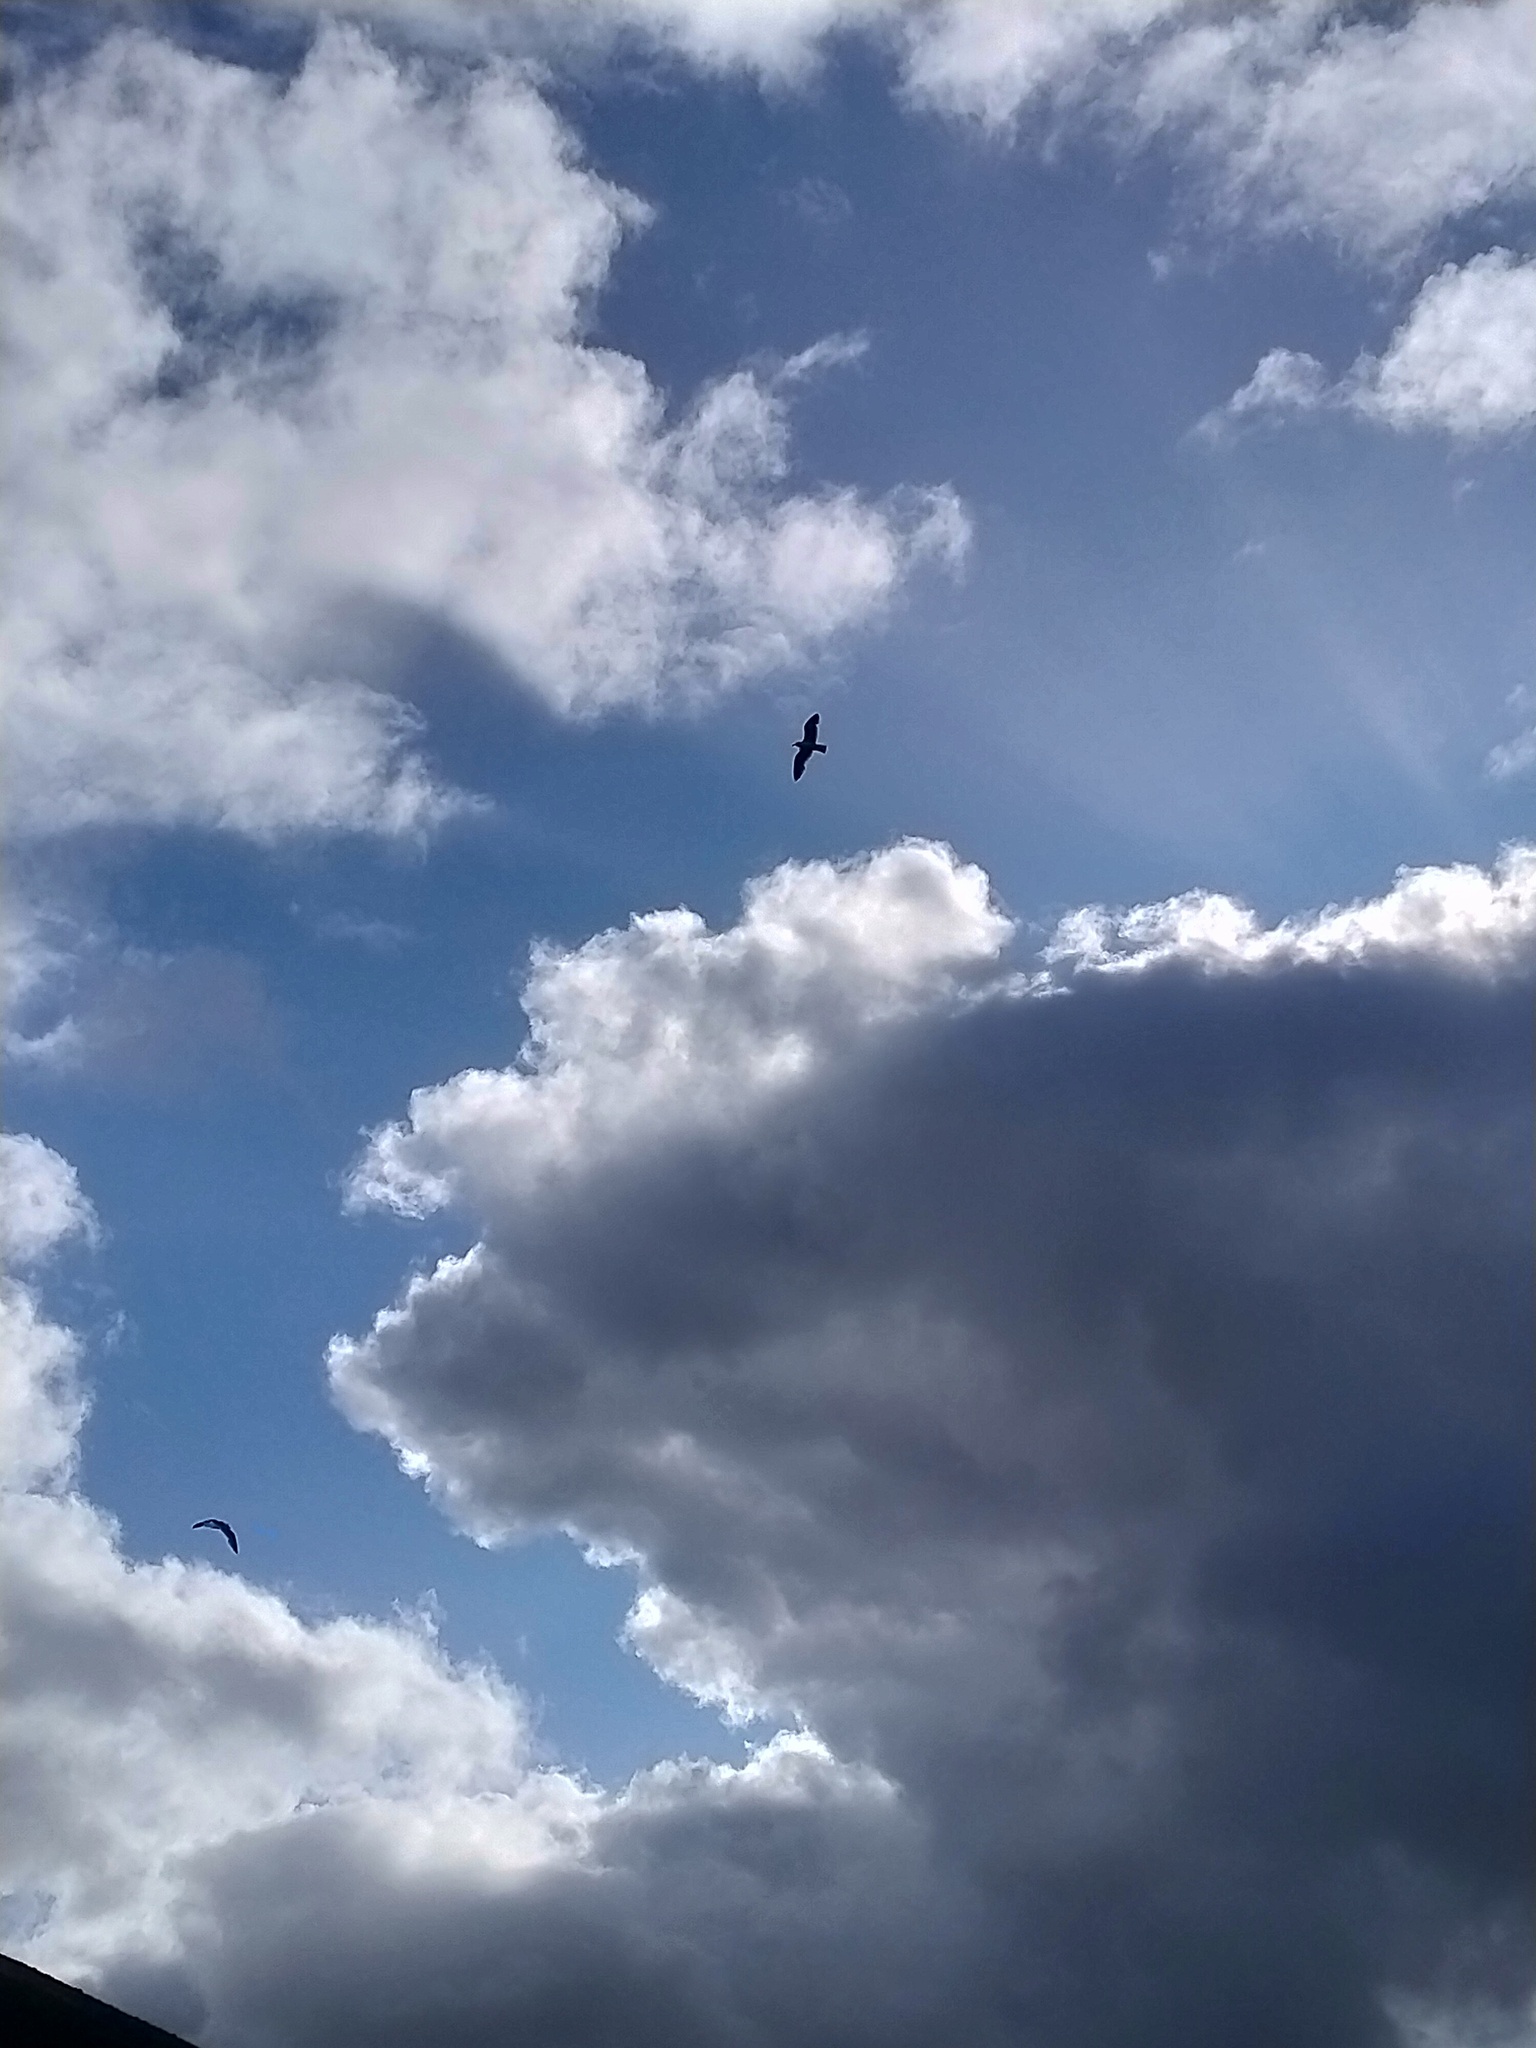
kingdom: Animalia
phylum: Chordata
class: Aves
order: Charadriiformes
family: Laridae
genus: Larus
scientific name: Larus dominicanus
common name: Kelp gull
